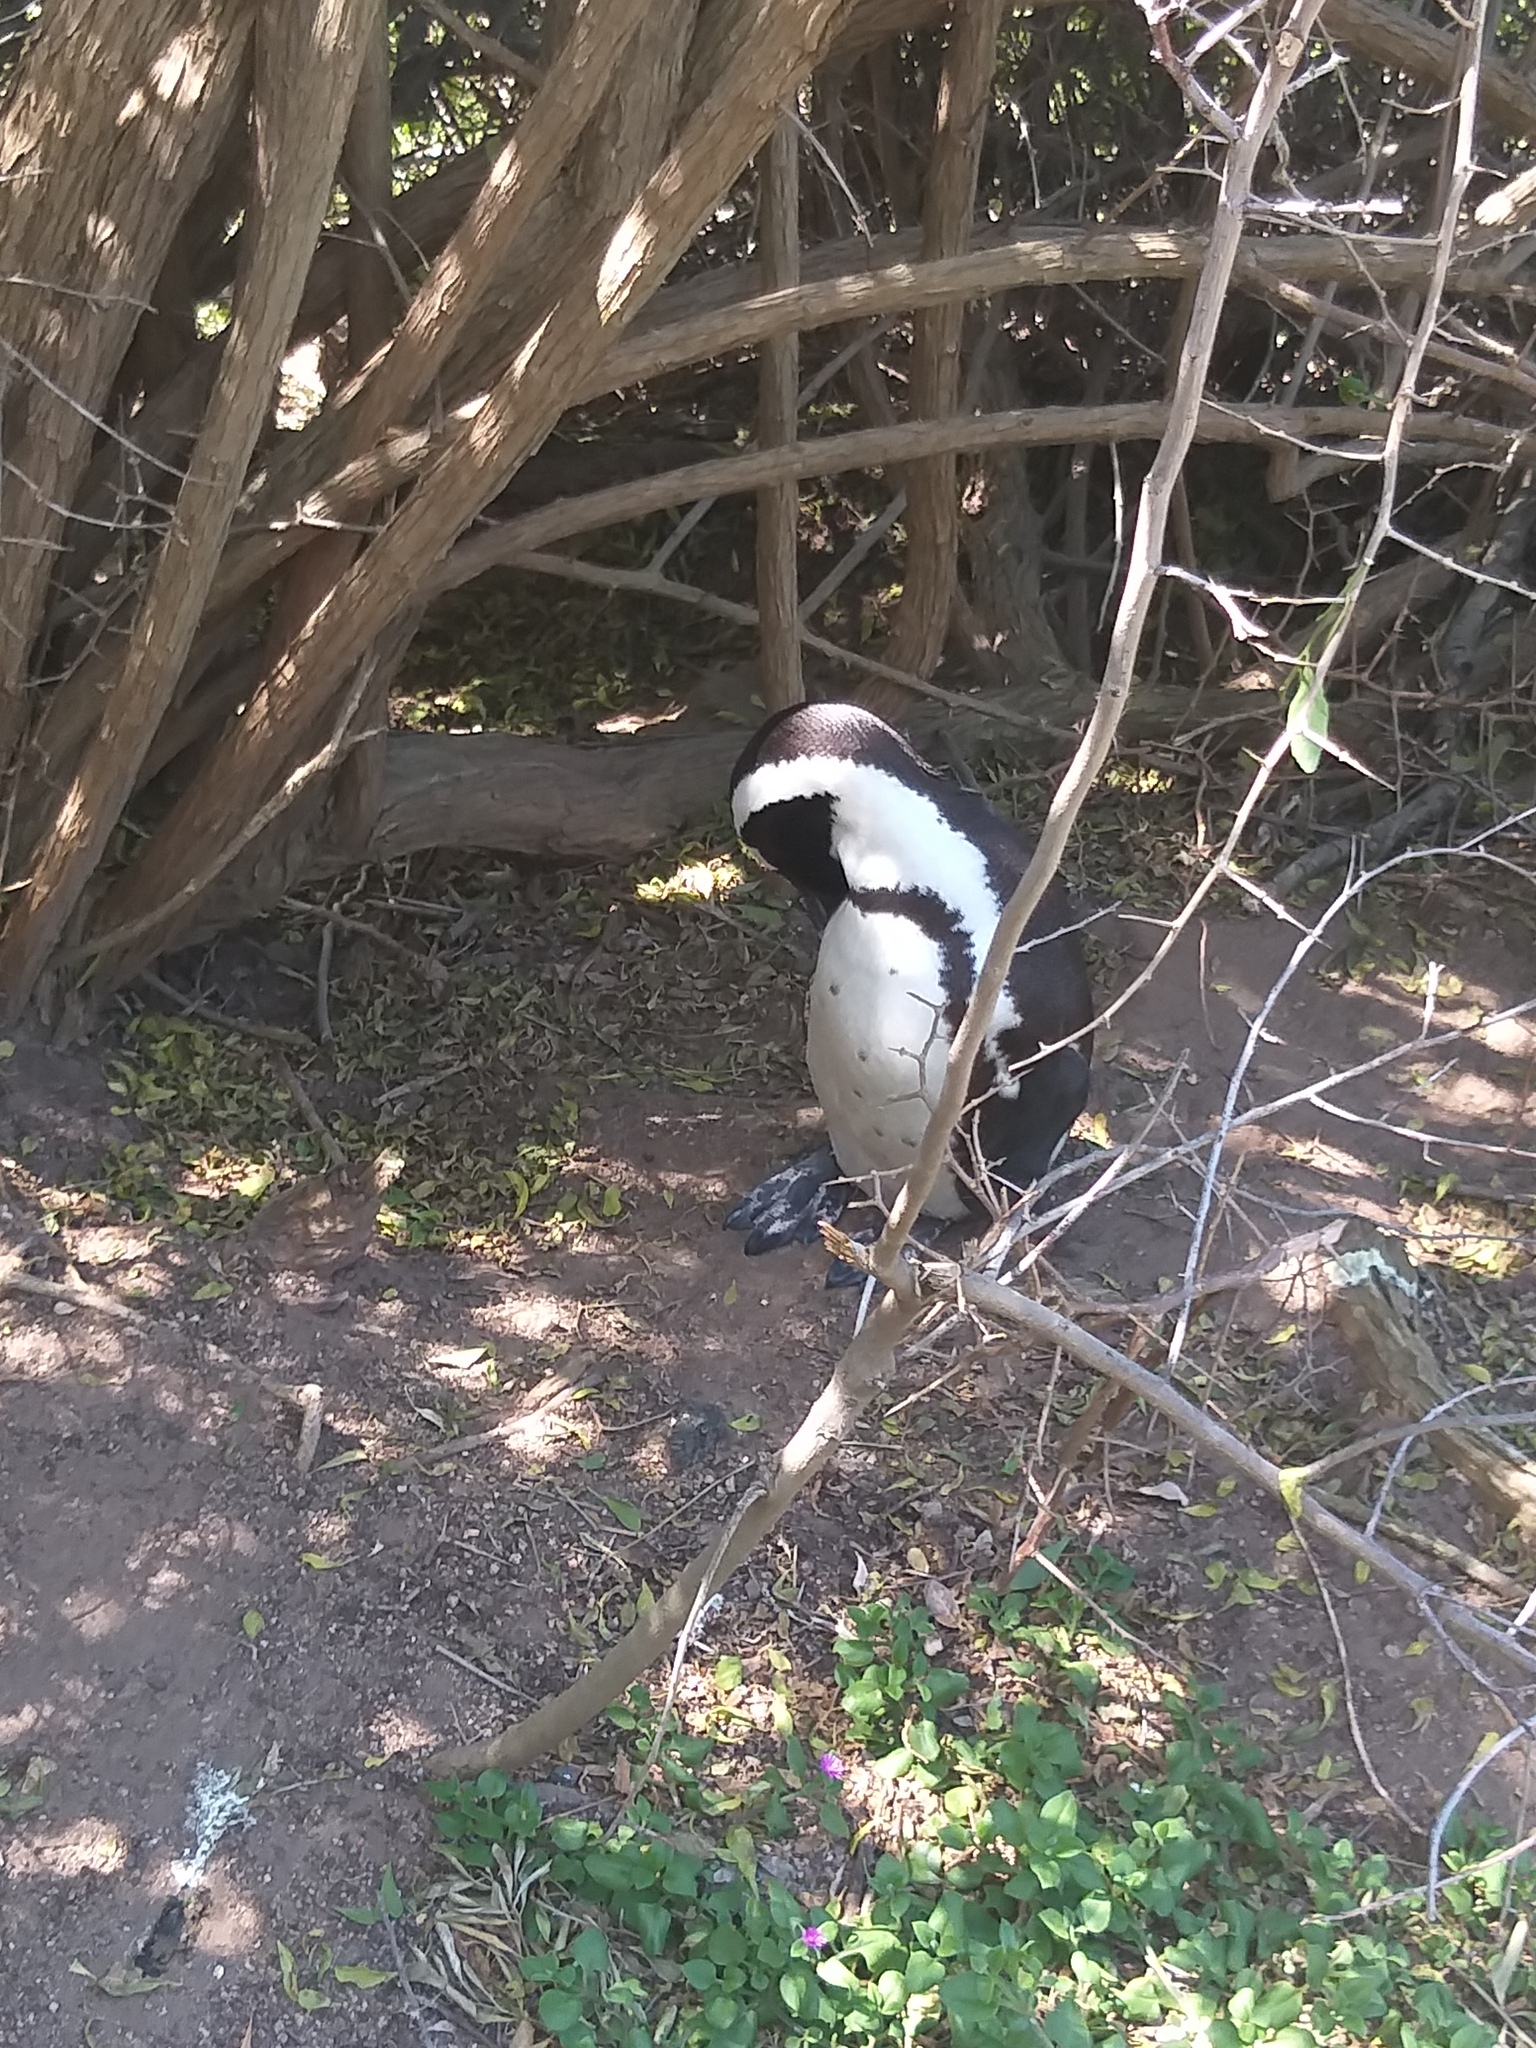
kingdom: Animalia
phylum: Chordata
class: Aves
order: Sphenisciformes
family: Spheniscidae
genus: Spheniscus
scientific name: Spheniscus demersus
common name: African penguin
